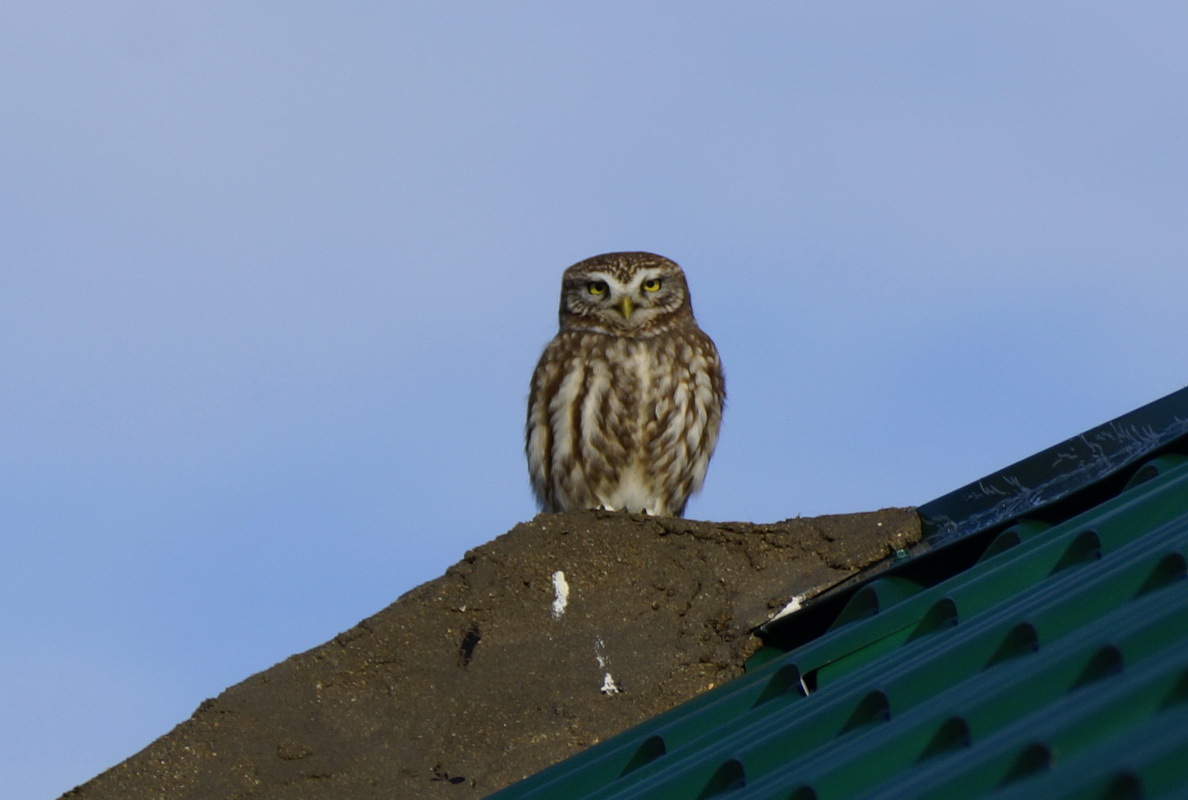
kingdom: Animalia
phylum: Chordata
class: Aves
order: Strigiformes
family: Strigidae
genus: Athene
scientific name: Athene noctua
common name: Little owl
